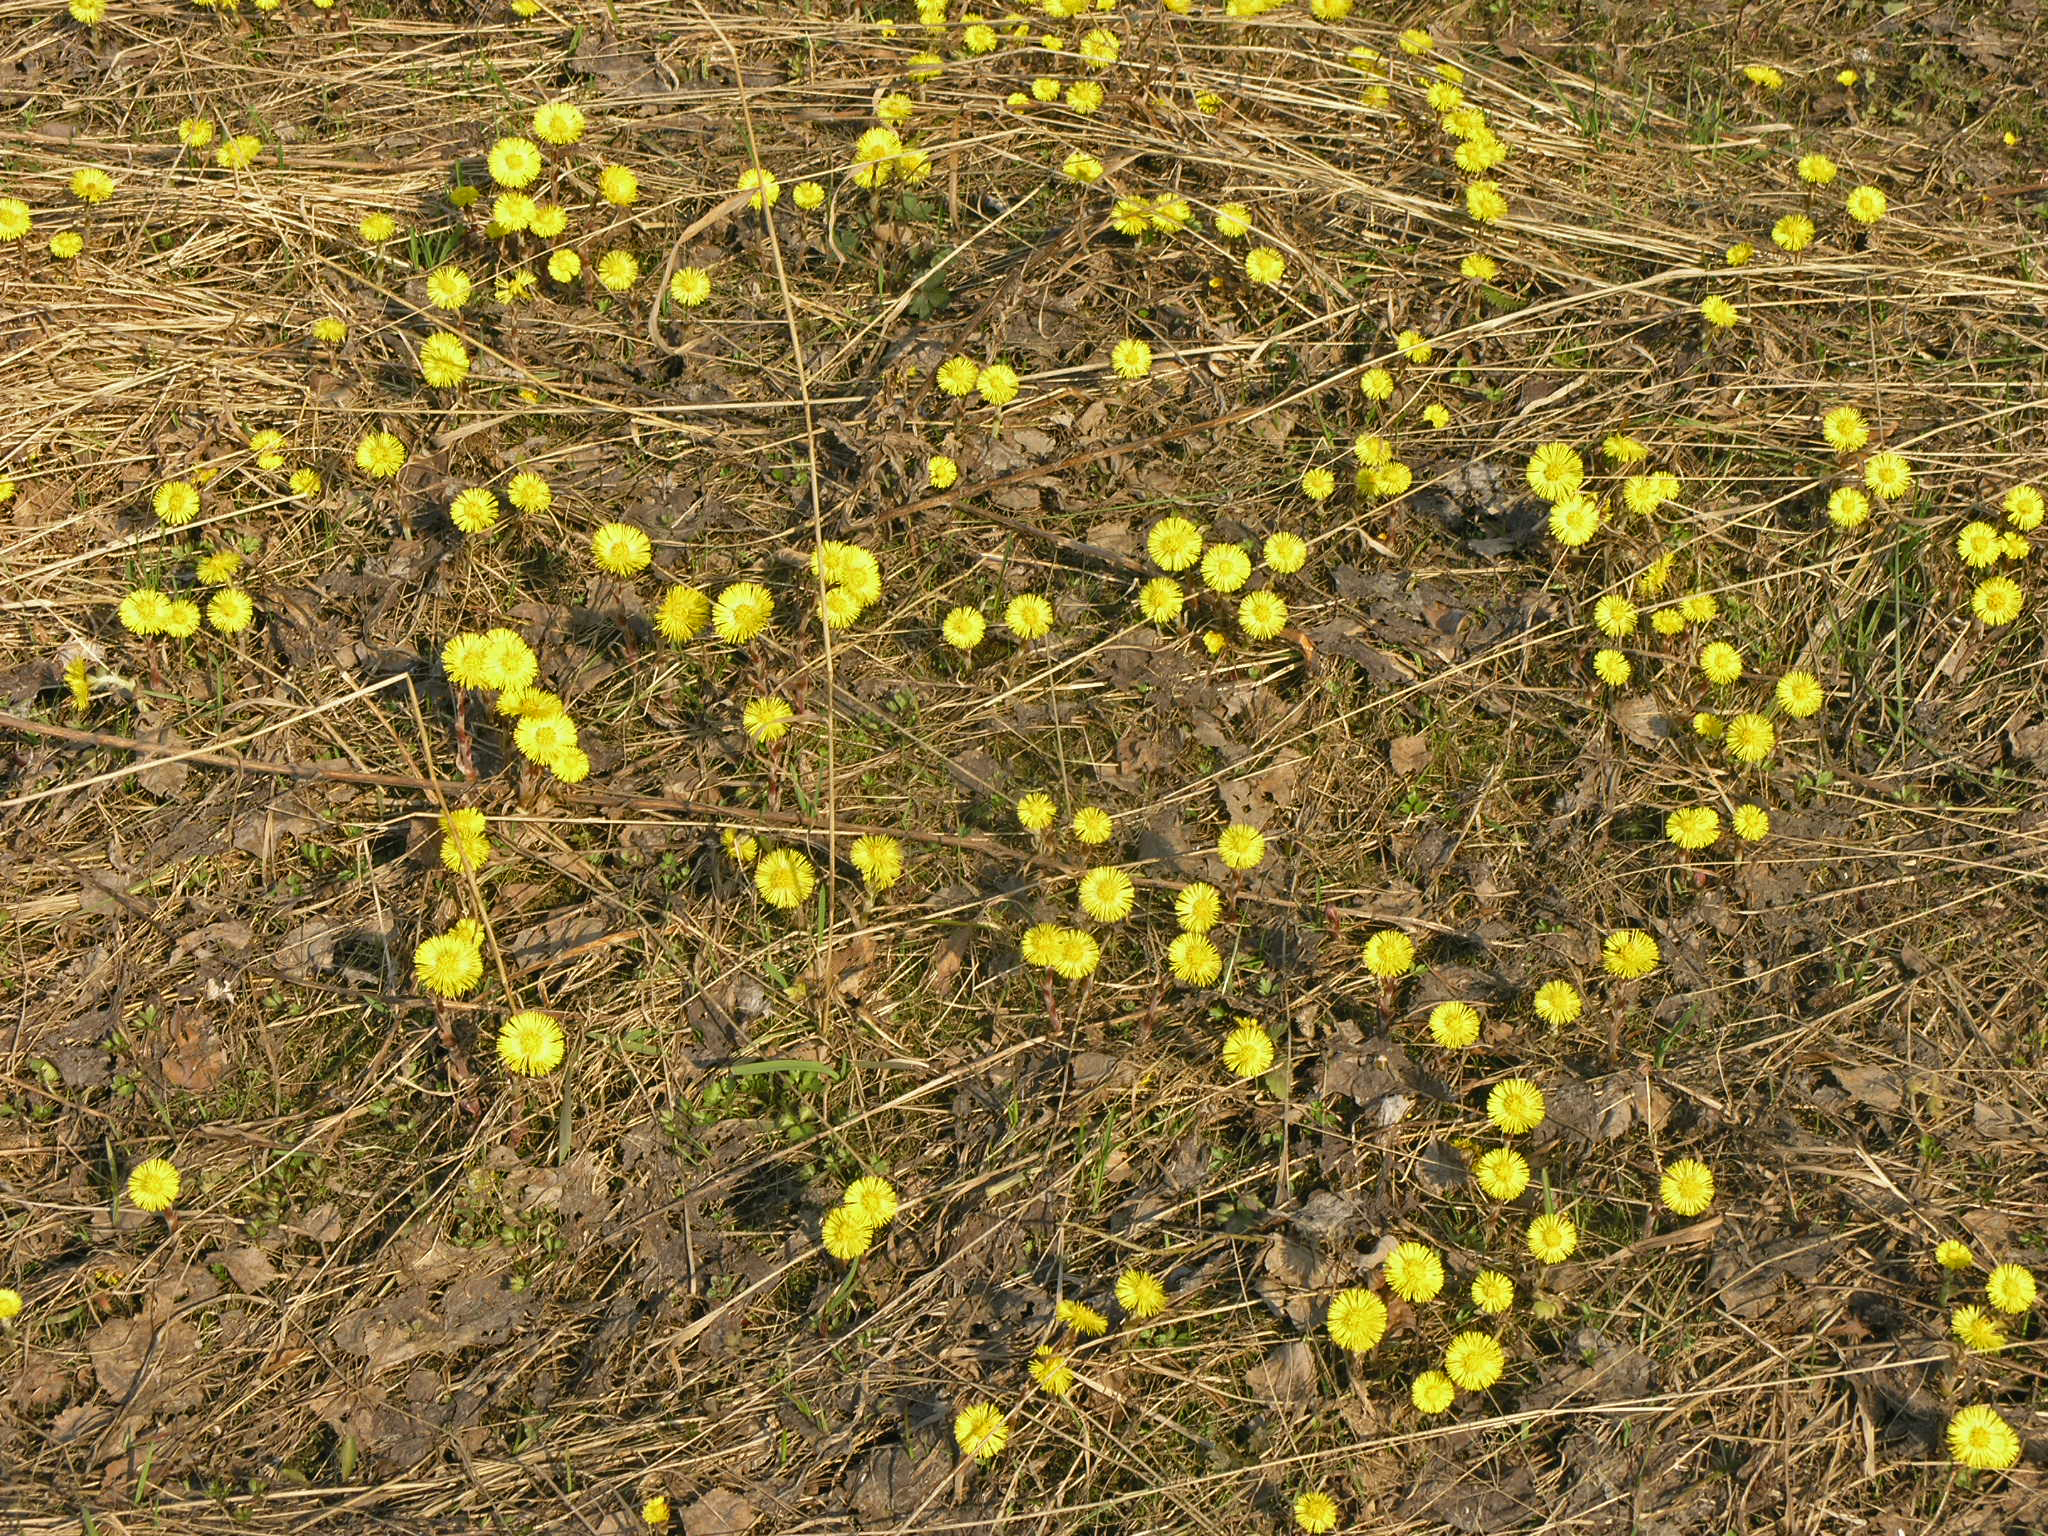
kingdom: Plantae
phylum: Tracheophyta
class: Magnoliopsida
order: Asterales
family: Asteraceae
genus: Tussilago
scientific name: Tussilago farfara
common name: Coltsfoot
